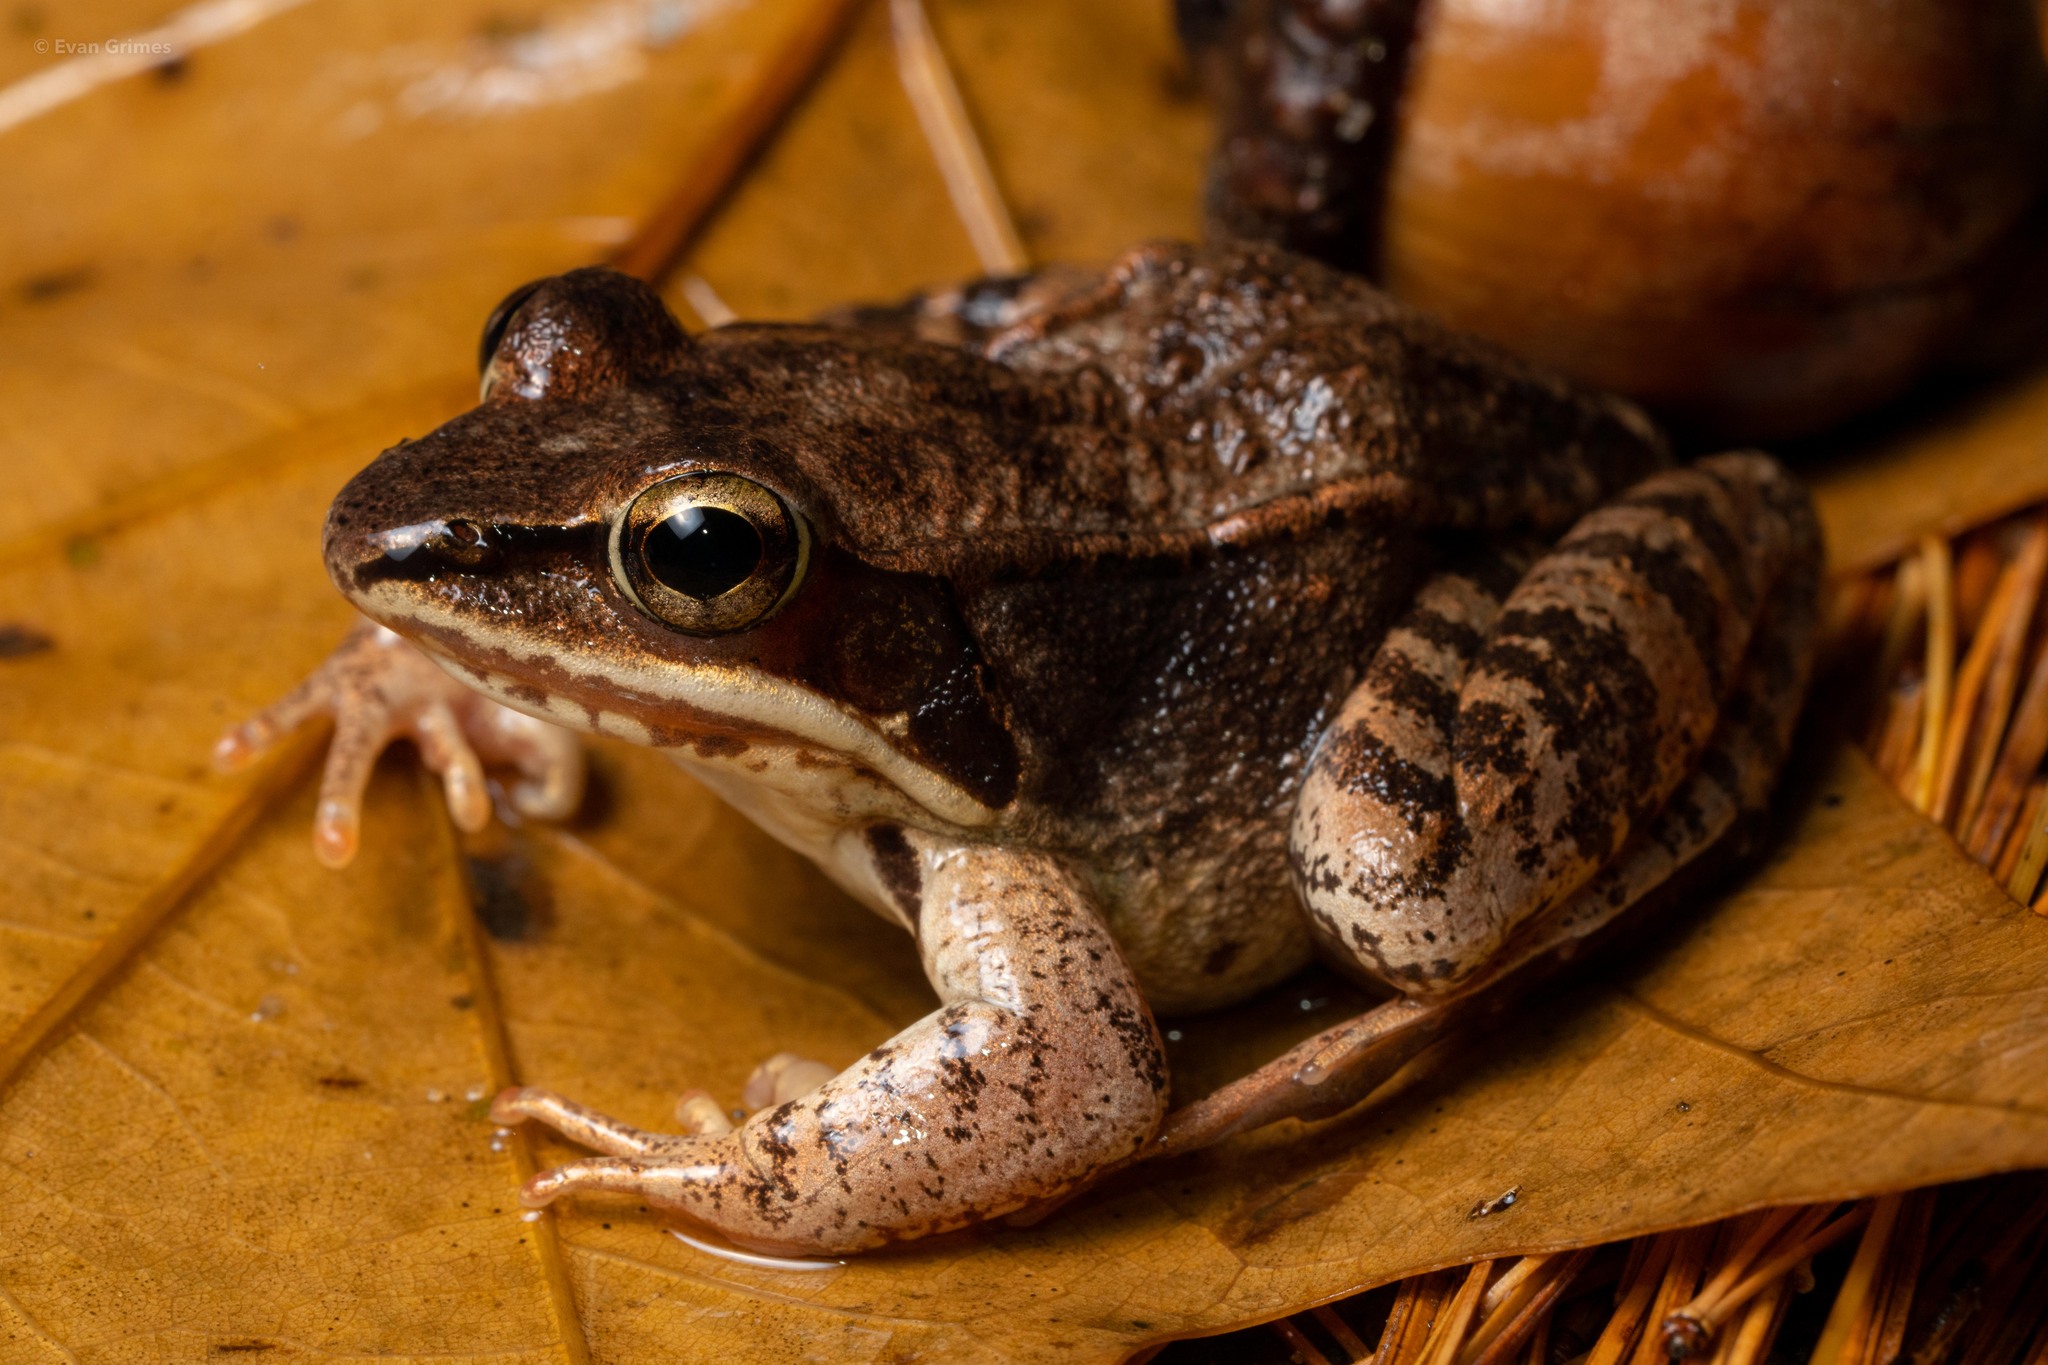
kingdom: Animalia
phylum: Chordata
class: Amphibia
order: Anura
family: Ranidae
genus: Lithobates
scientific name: Lithobates sylvaticus
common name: Wood frog
